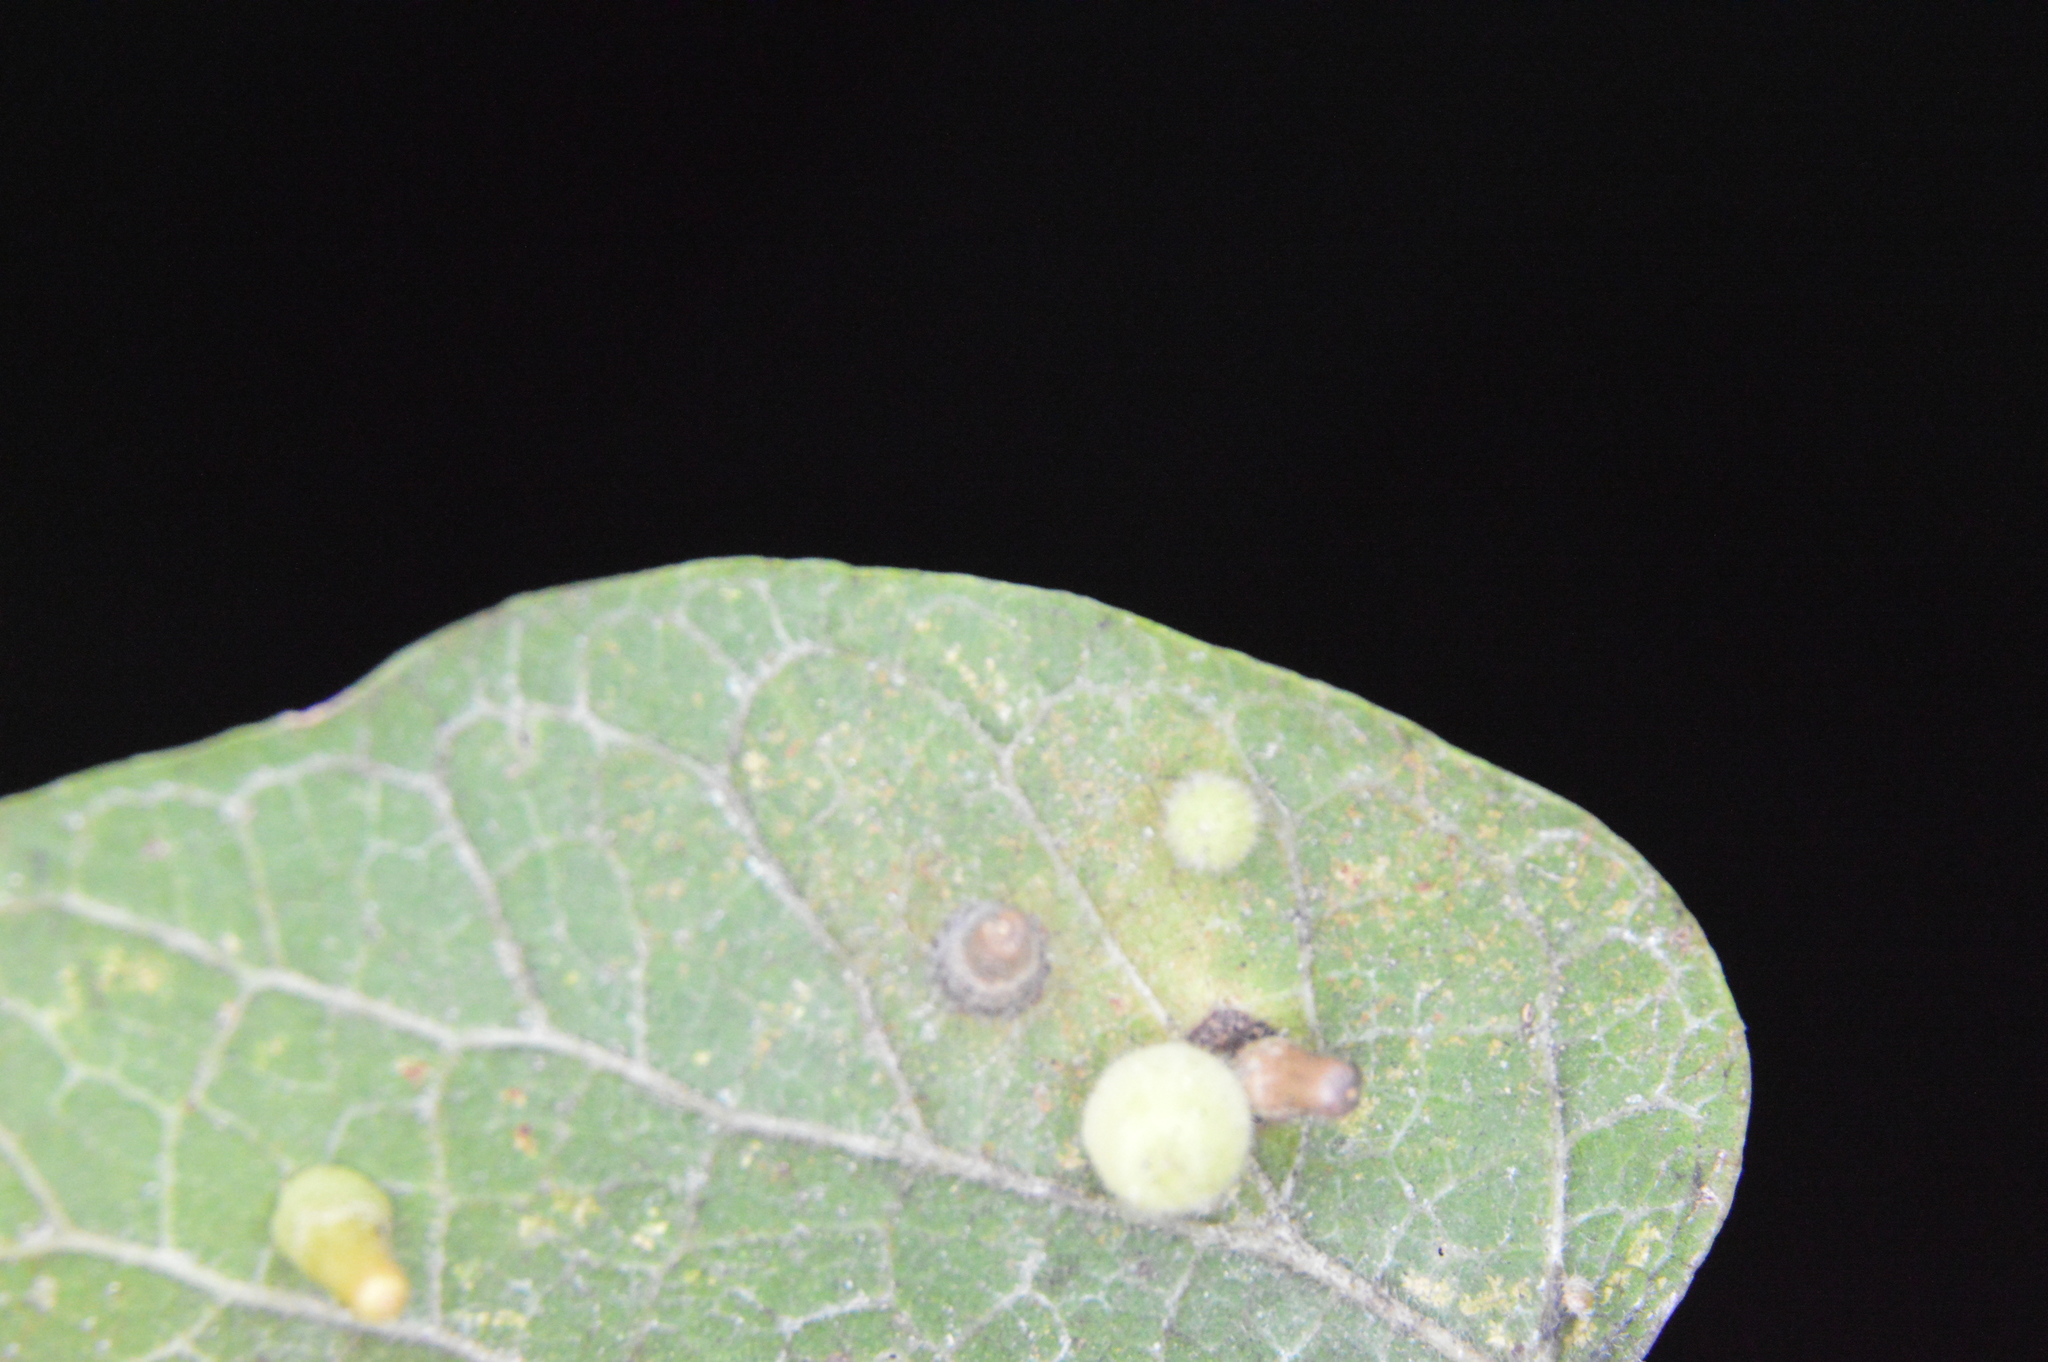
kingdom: Animalia
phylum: Arthropoda
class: Insecta
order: Diptera
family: Cecidomyiidae
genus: Celticecis
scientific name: Celticecis aciculata
